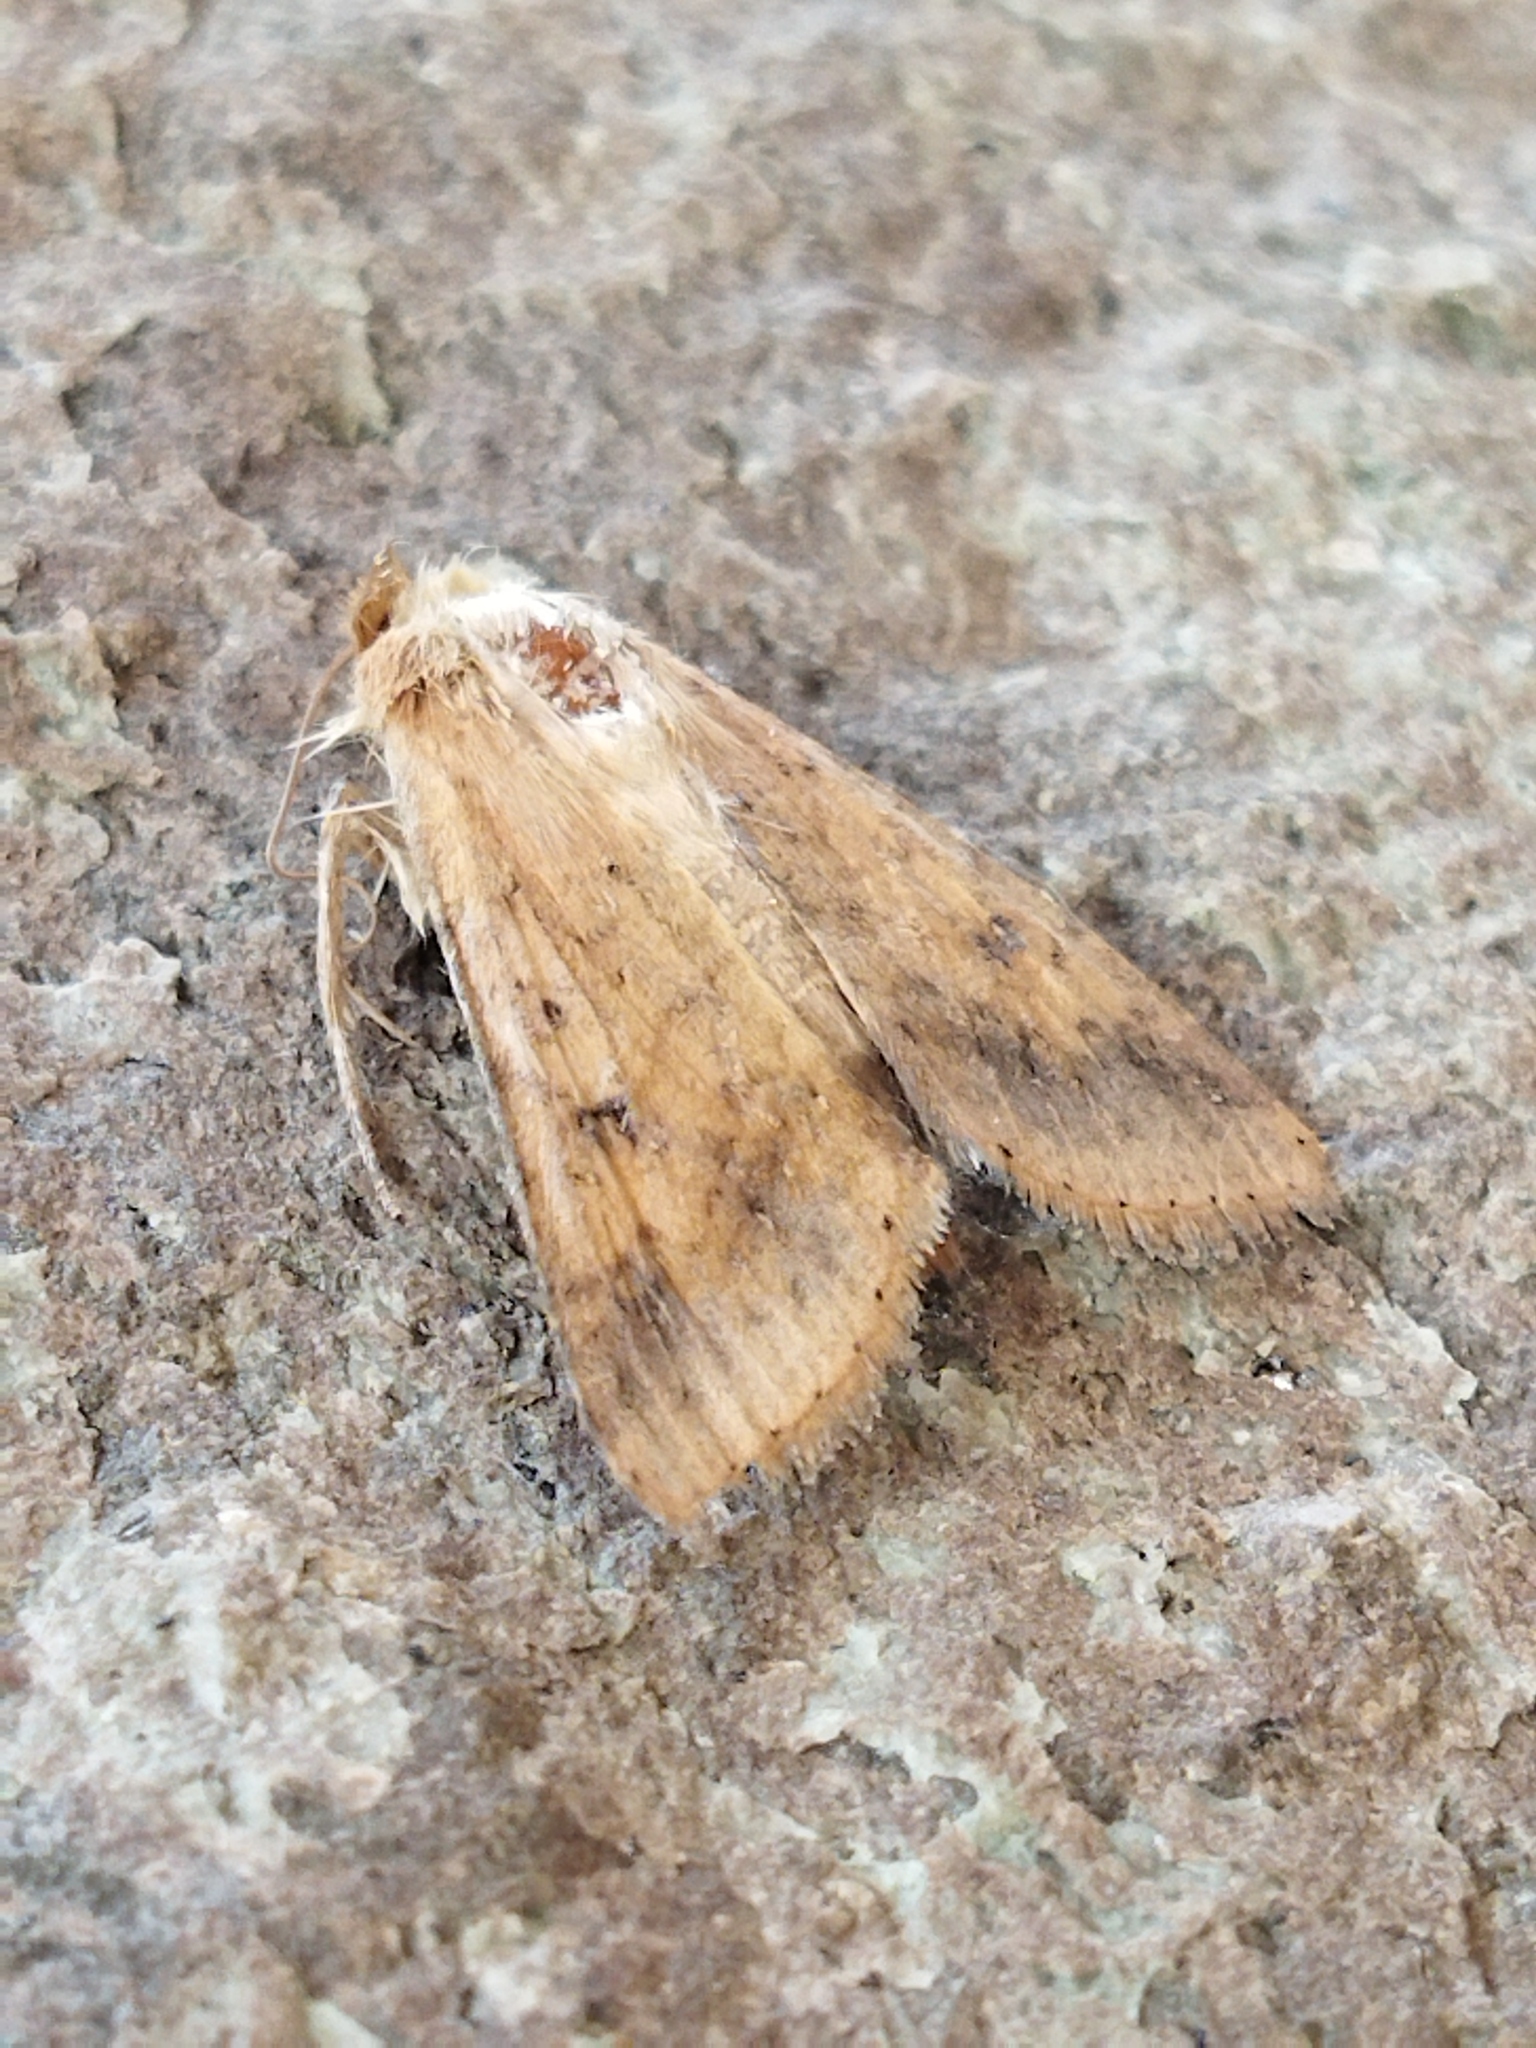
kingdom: Animalia
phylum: Arthropoda
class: Insecta
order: Lepidoptera
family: Noctuidae
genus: Helicoverpa
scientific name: Helicoverpa armigera
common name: Cotton bollworm
